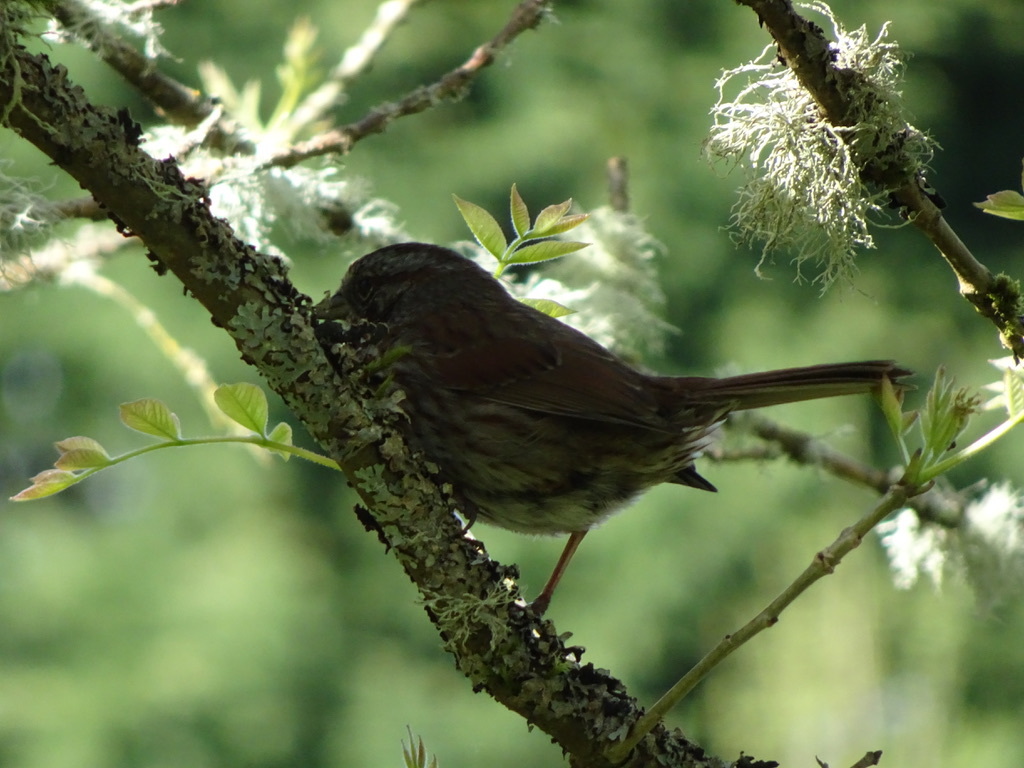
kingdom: Animalia
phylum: Chordata
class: Aves
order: Passeriformes
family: Passerellidae
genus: Melospiza
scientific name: Melospiza melodia
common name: Song sparrow
